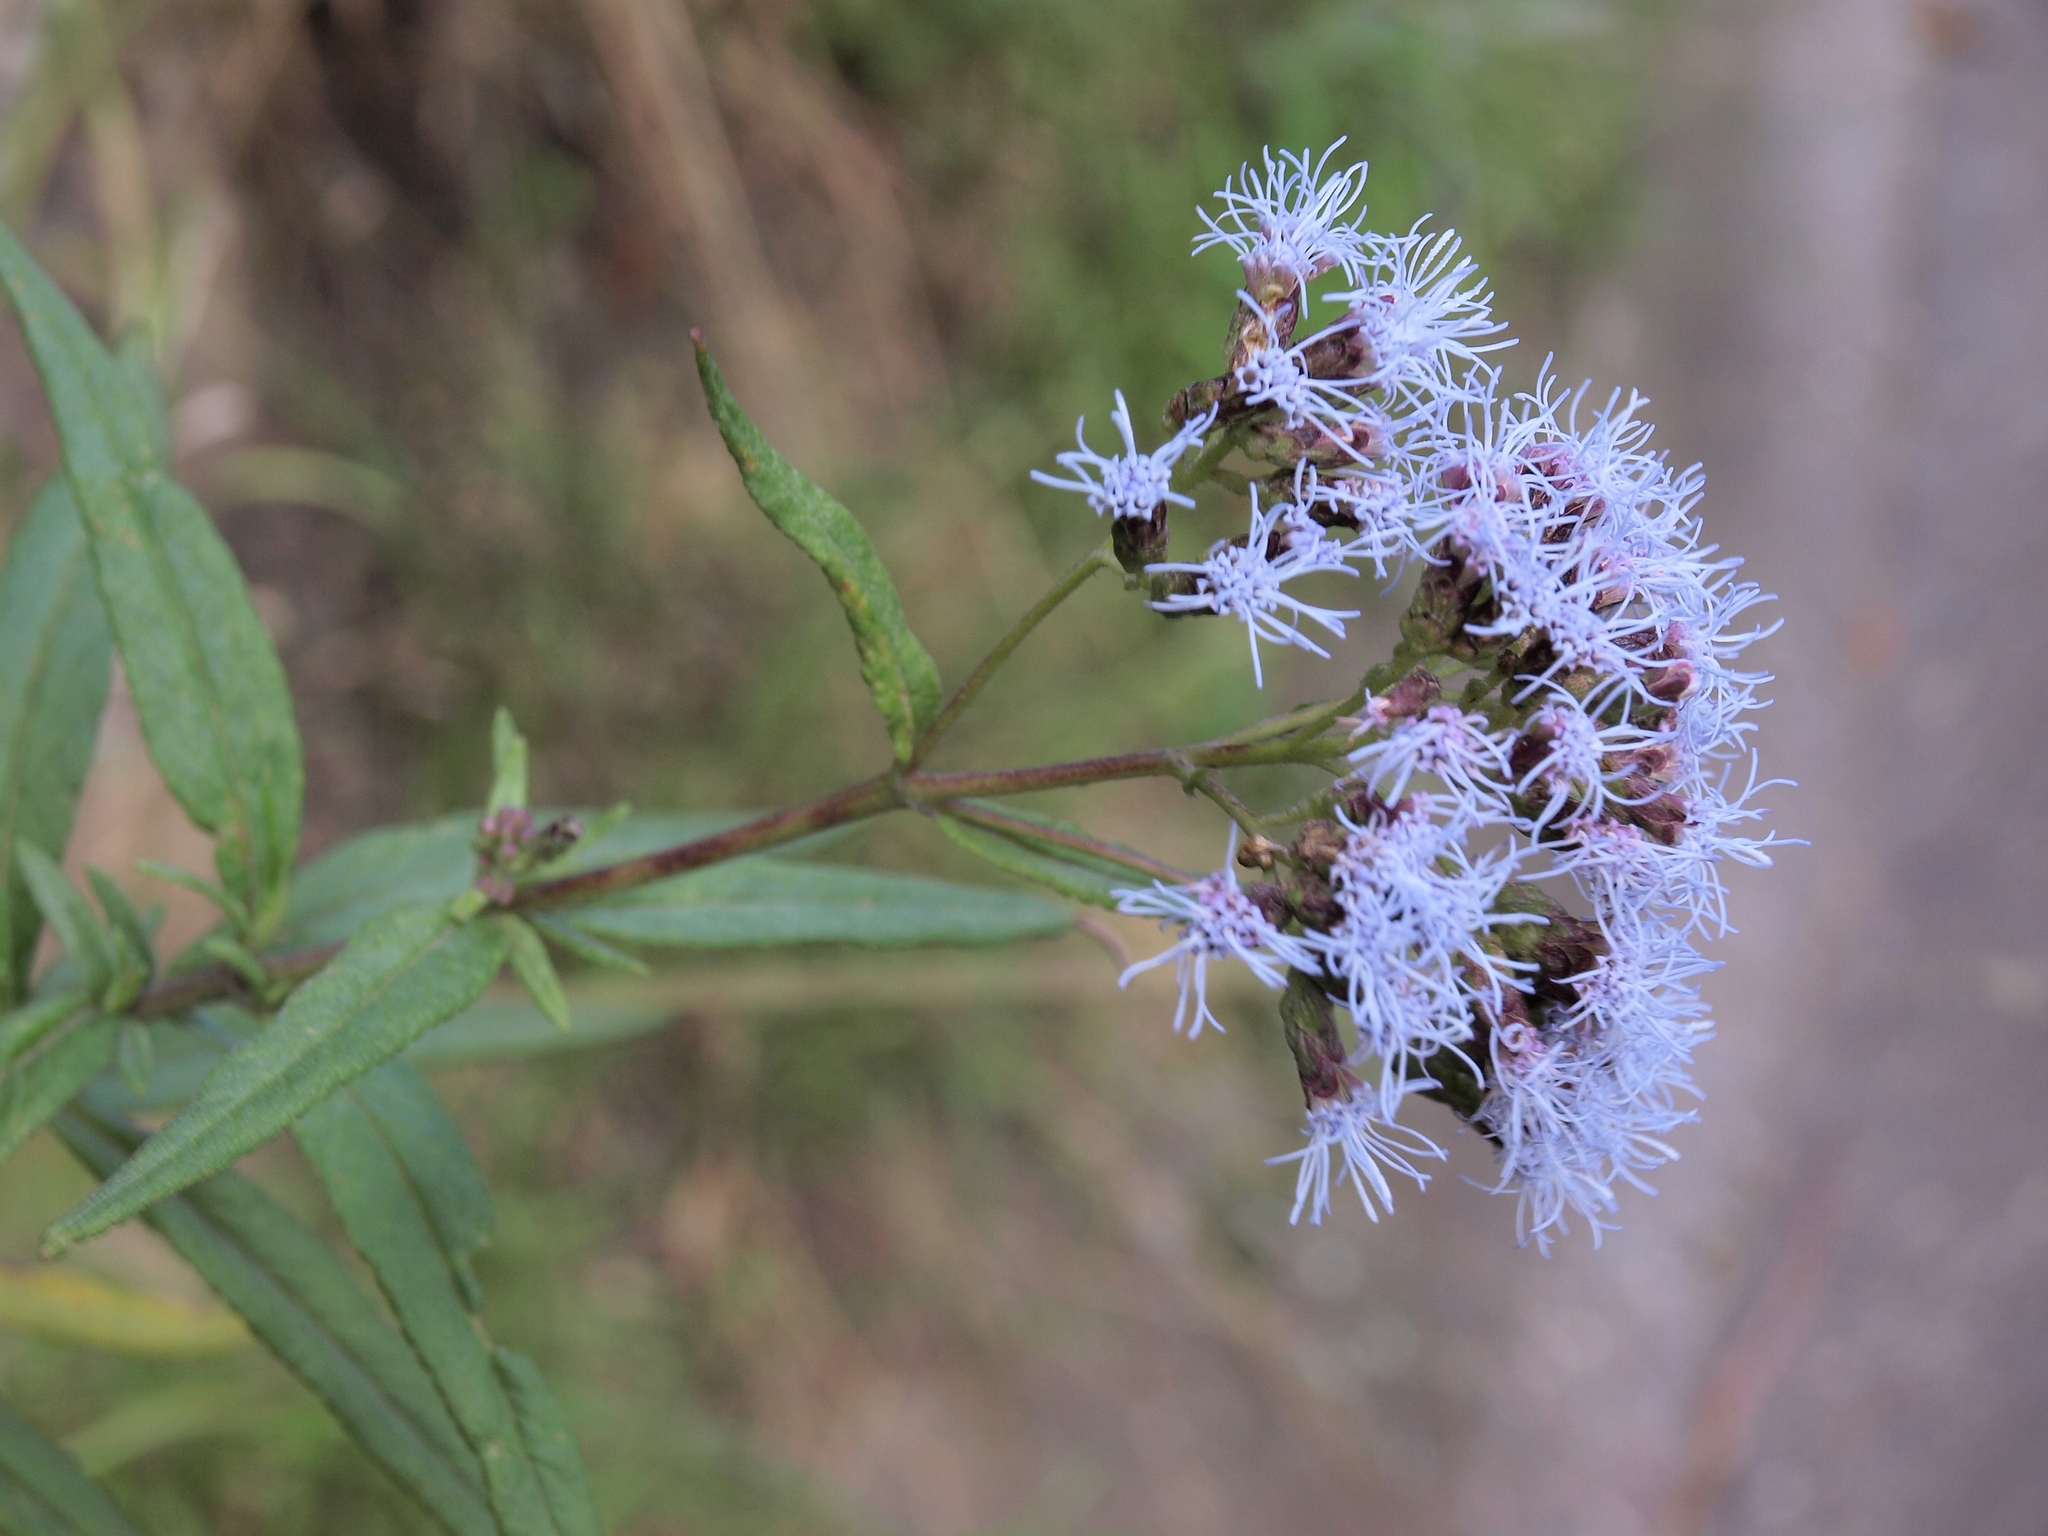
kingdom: Plantae
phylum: Tracheophyta
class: Magnoliopsida
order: Asterales
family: Asteraceae
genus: Aristeguietia
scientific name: Aristeguietia discolor
